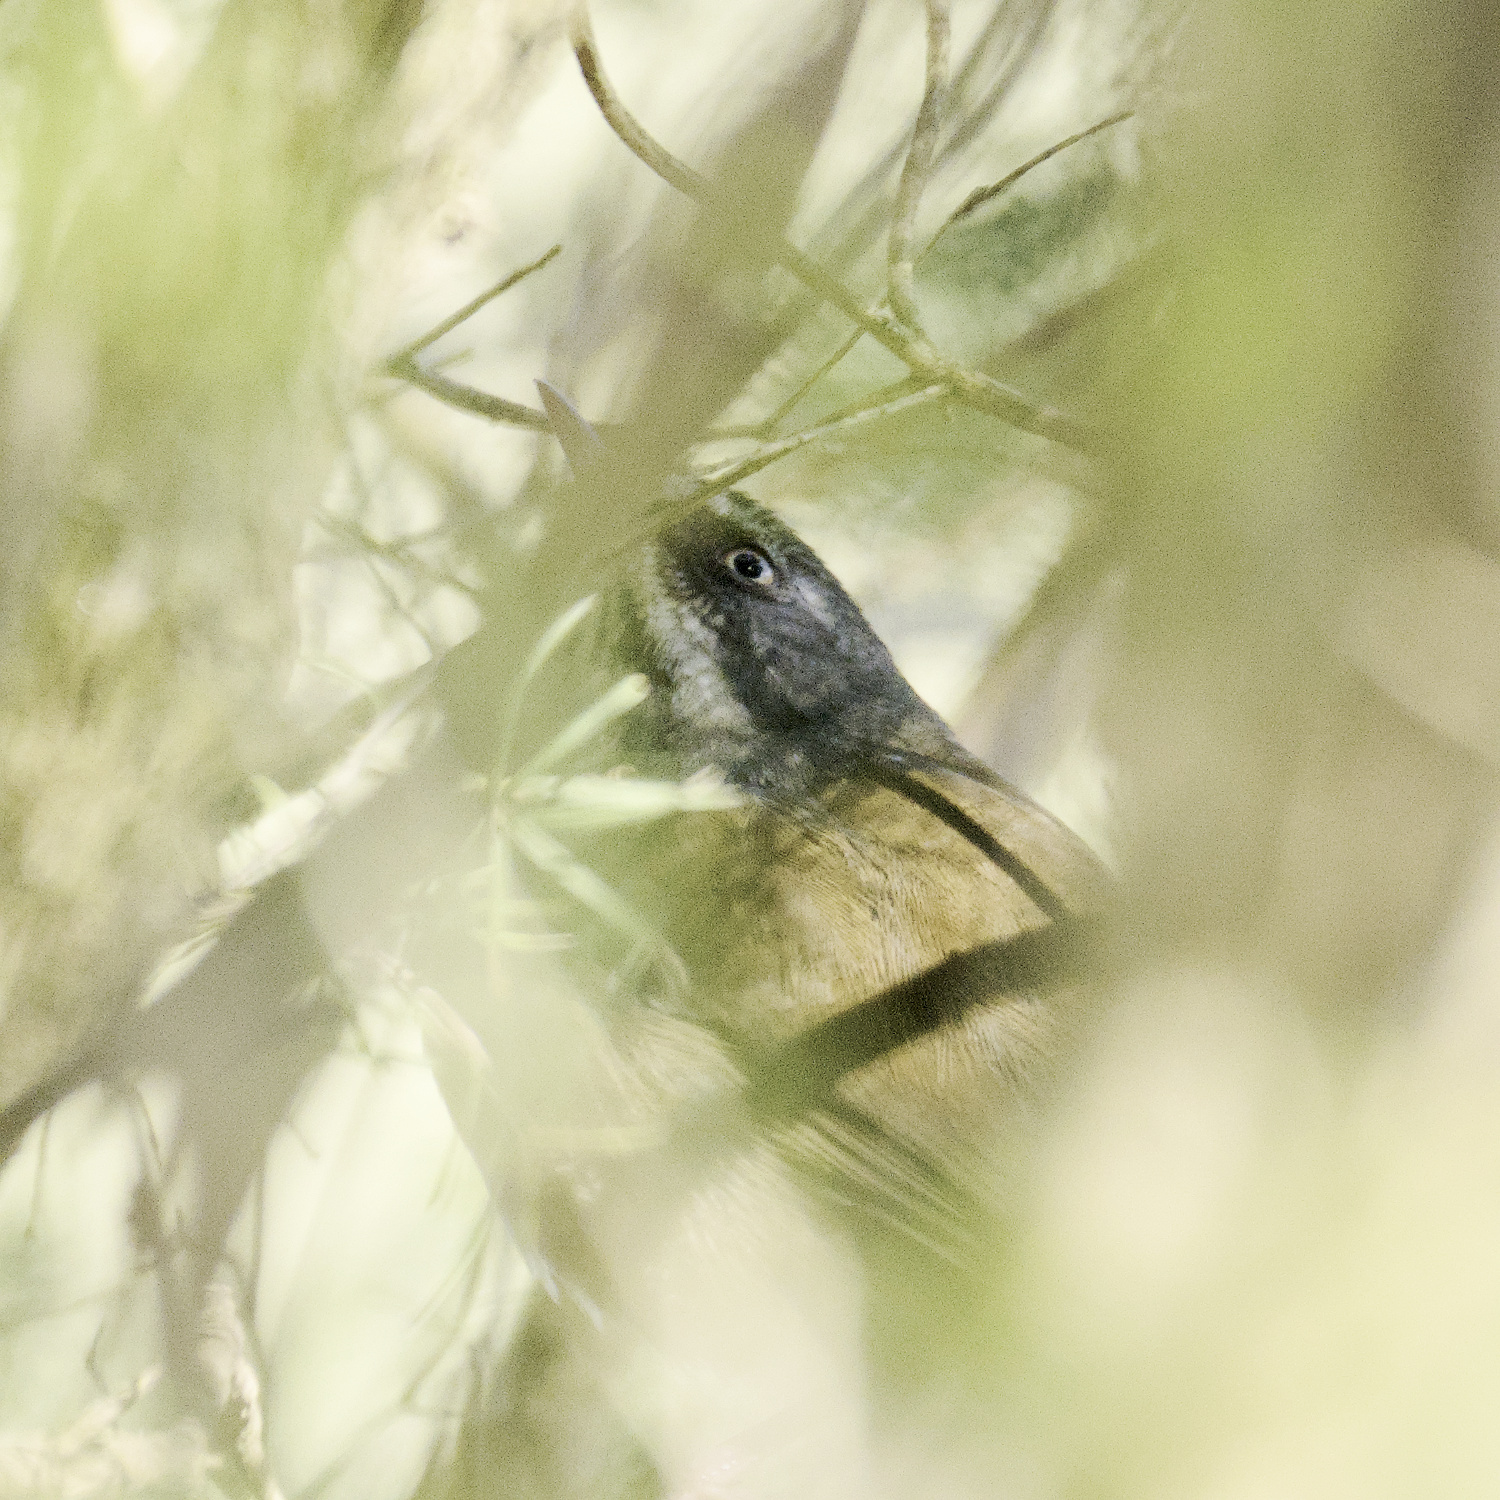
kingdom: Animalia
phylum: Chordata
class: Aves
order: Passeriformes
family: Acanthizidae
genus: Sericornis
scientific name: Sericornis frontalis
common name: White-browed scrubwren
